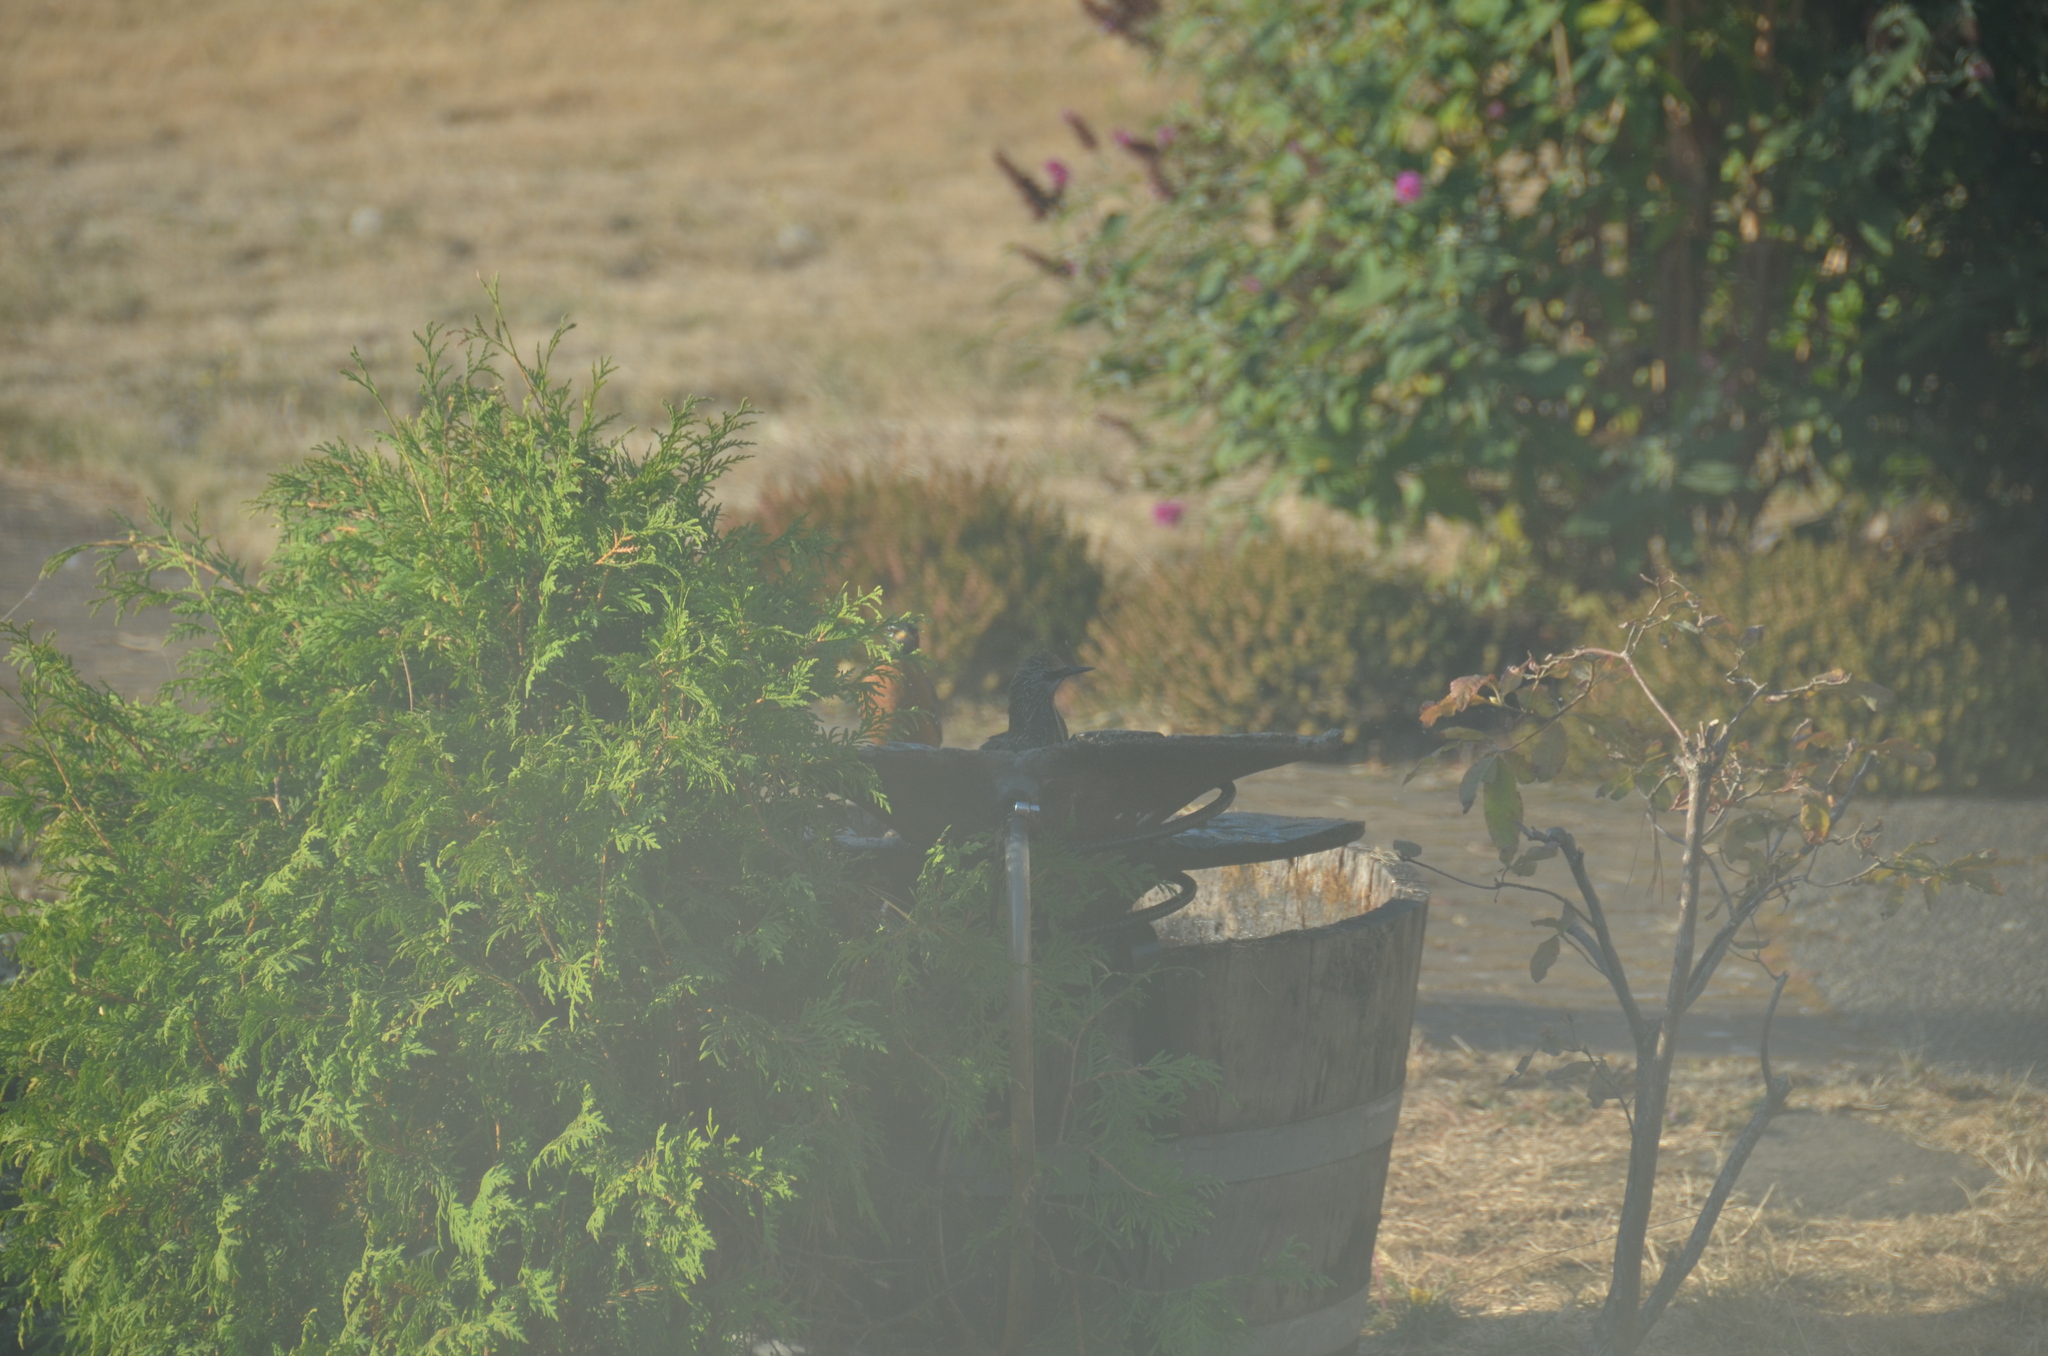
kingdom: Animalia
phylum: Chordata
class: Aves
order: Passeriformes
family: Sturnidae
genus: Sturnus
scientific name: Sturnus vulgaris
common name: Common starling
